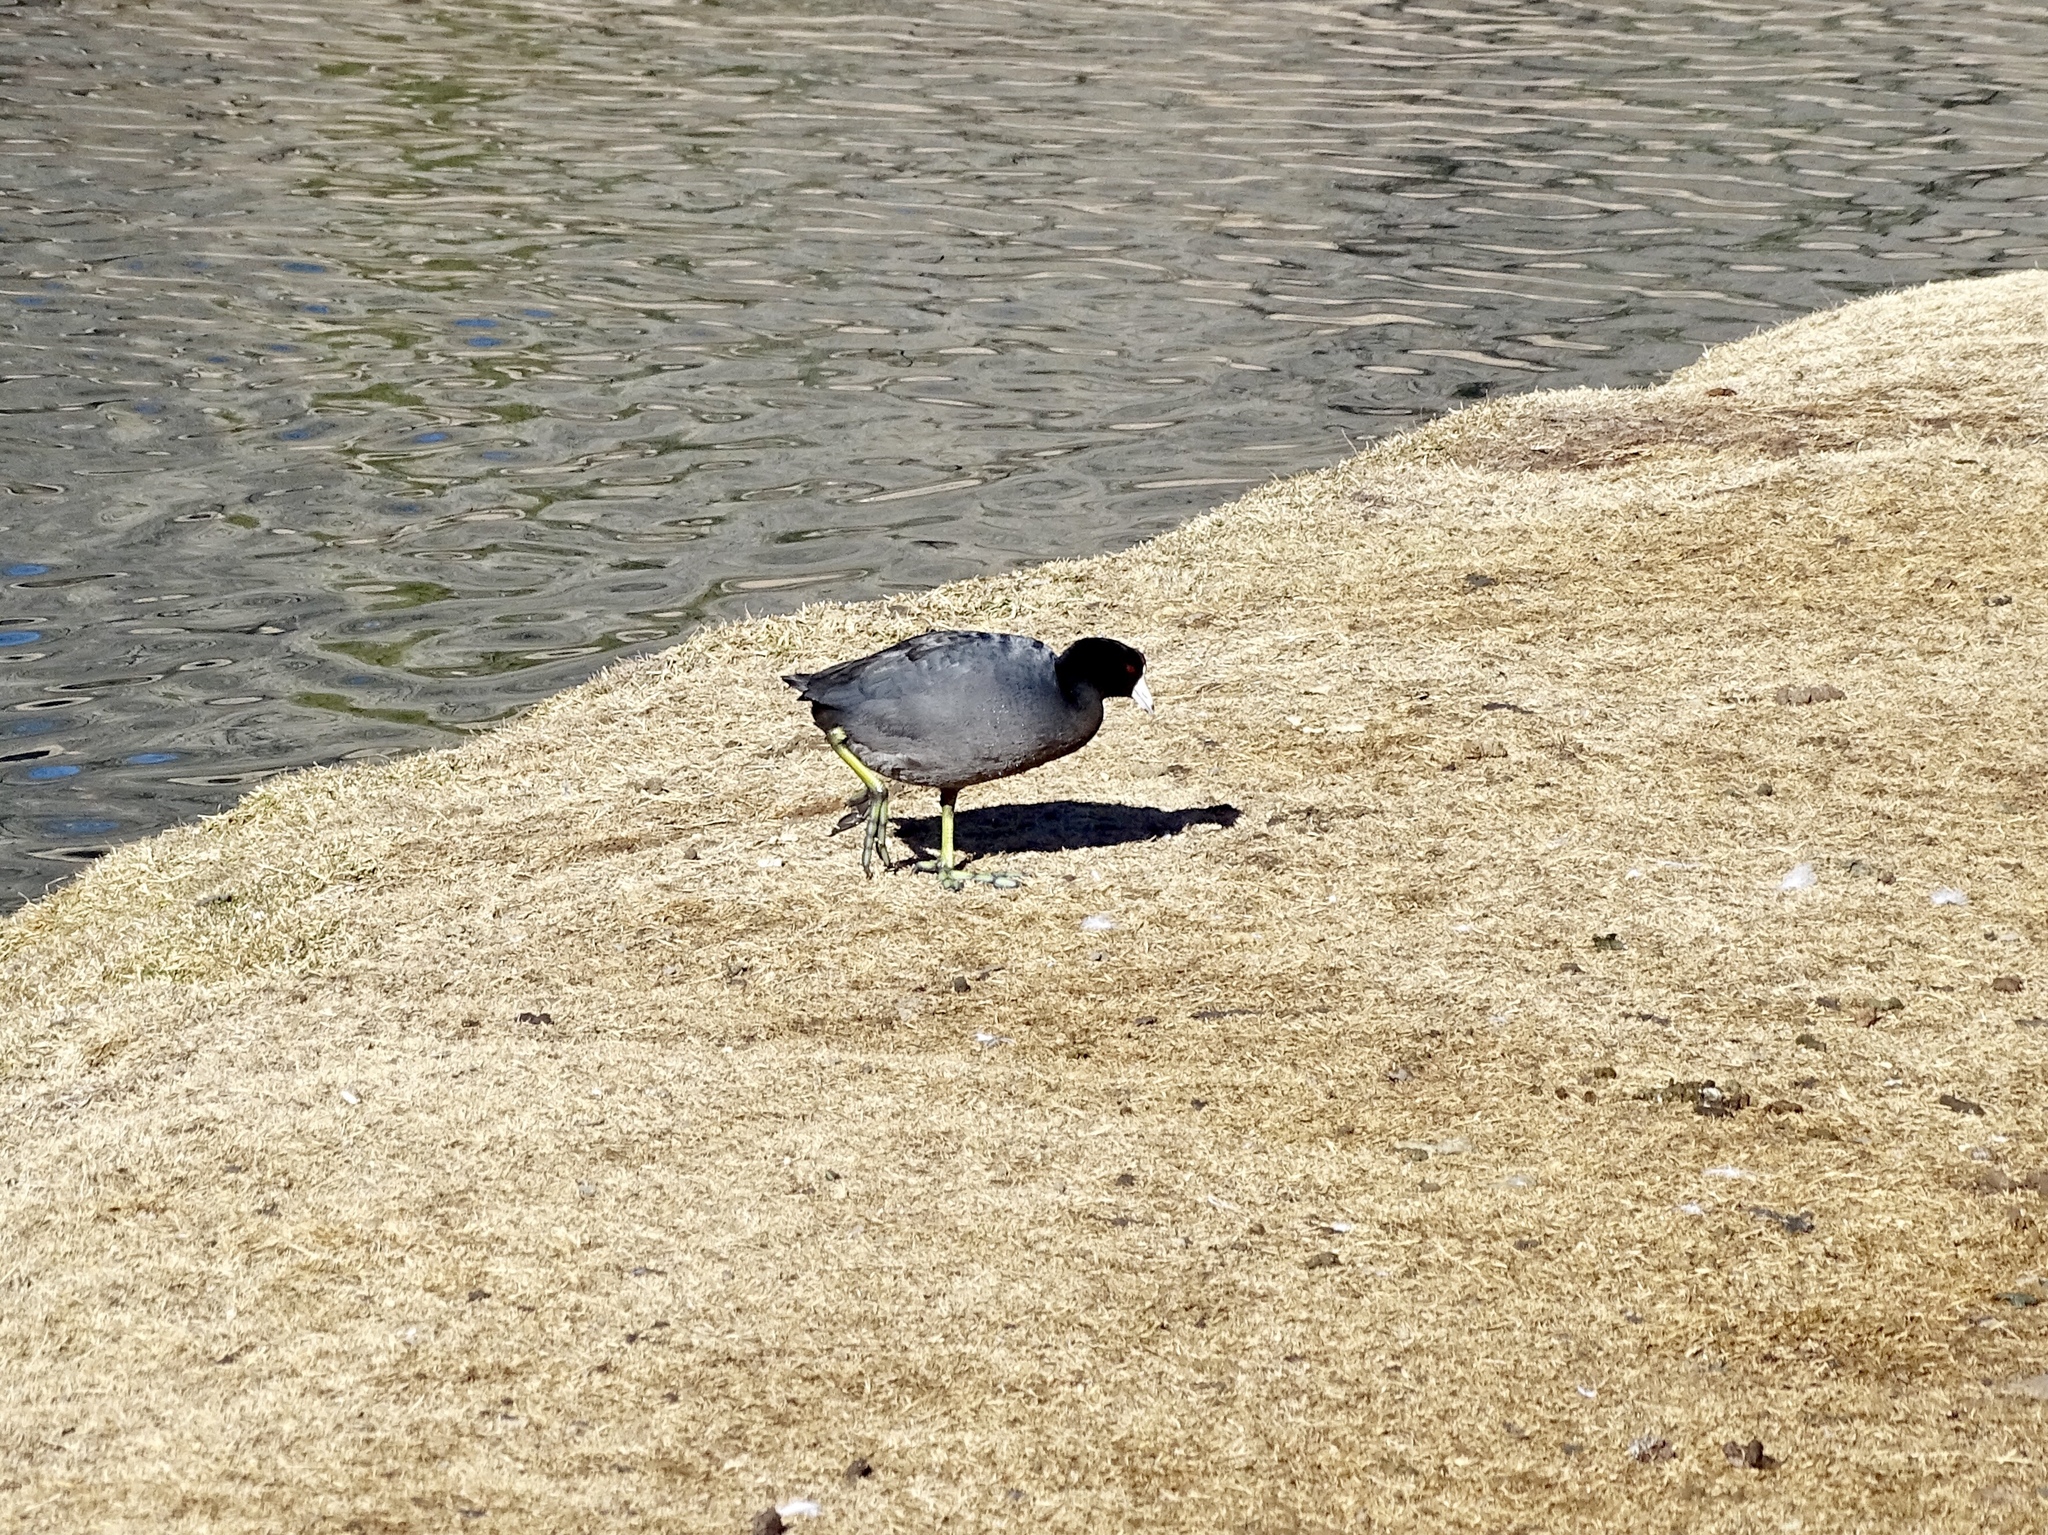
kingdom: Animalia
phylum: Chordata
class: Aves
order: Gruiformes
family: Rallidae
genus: Fulica
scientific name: Fulica americana
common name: American coot
